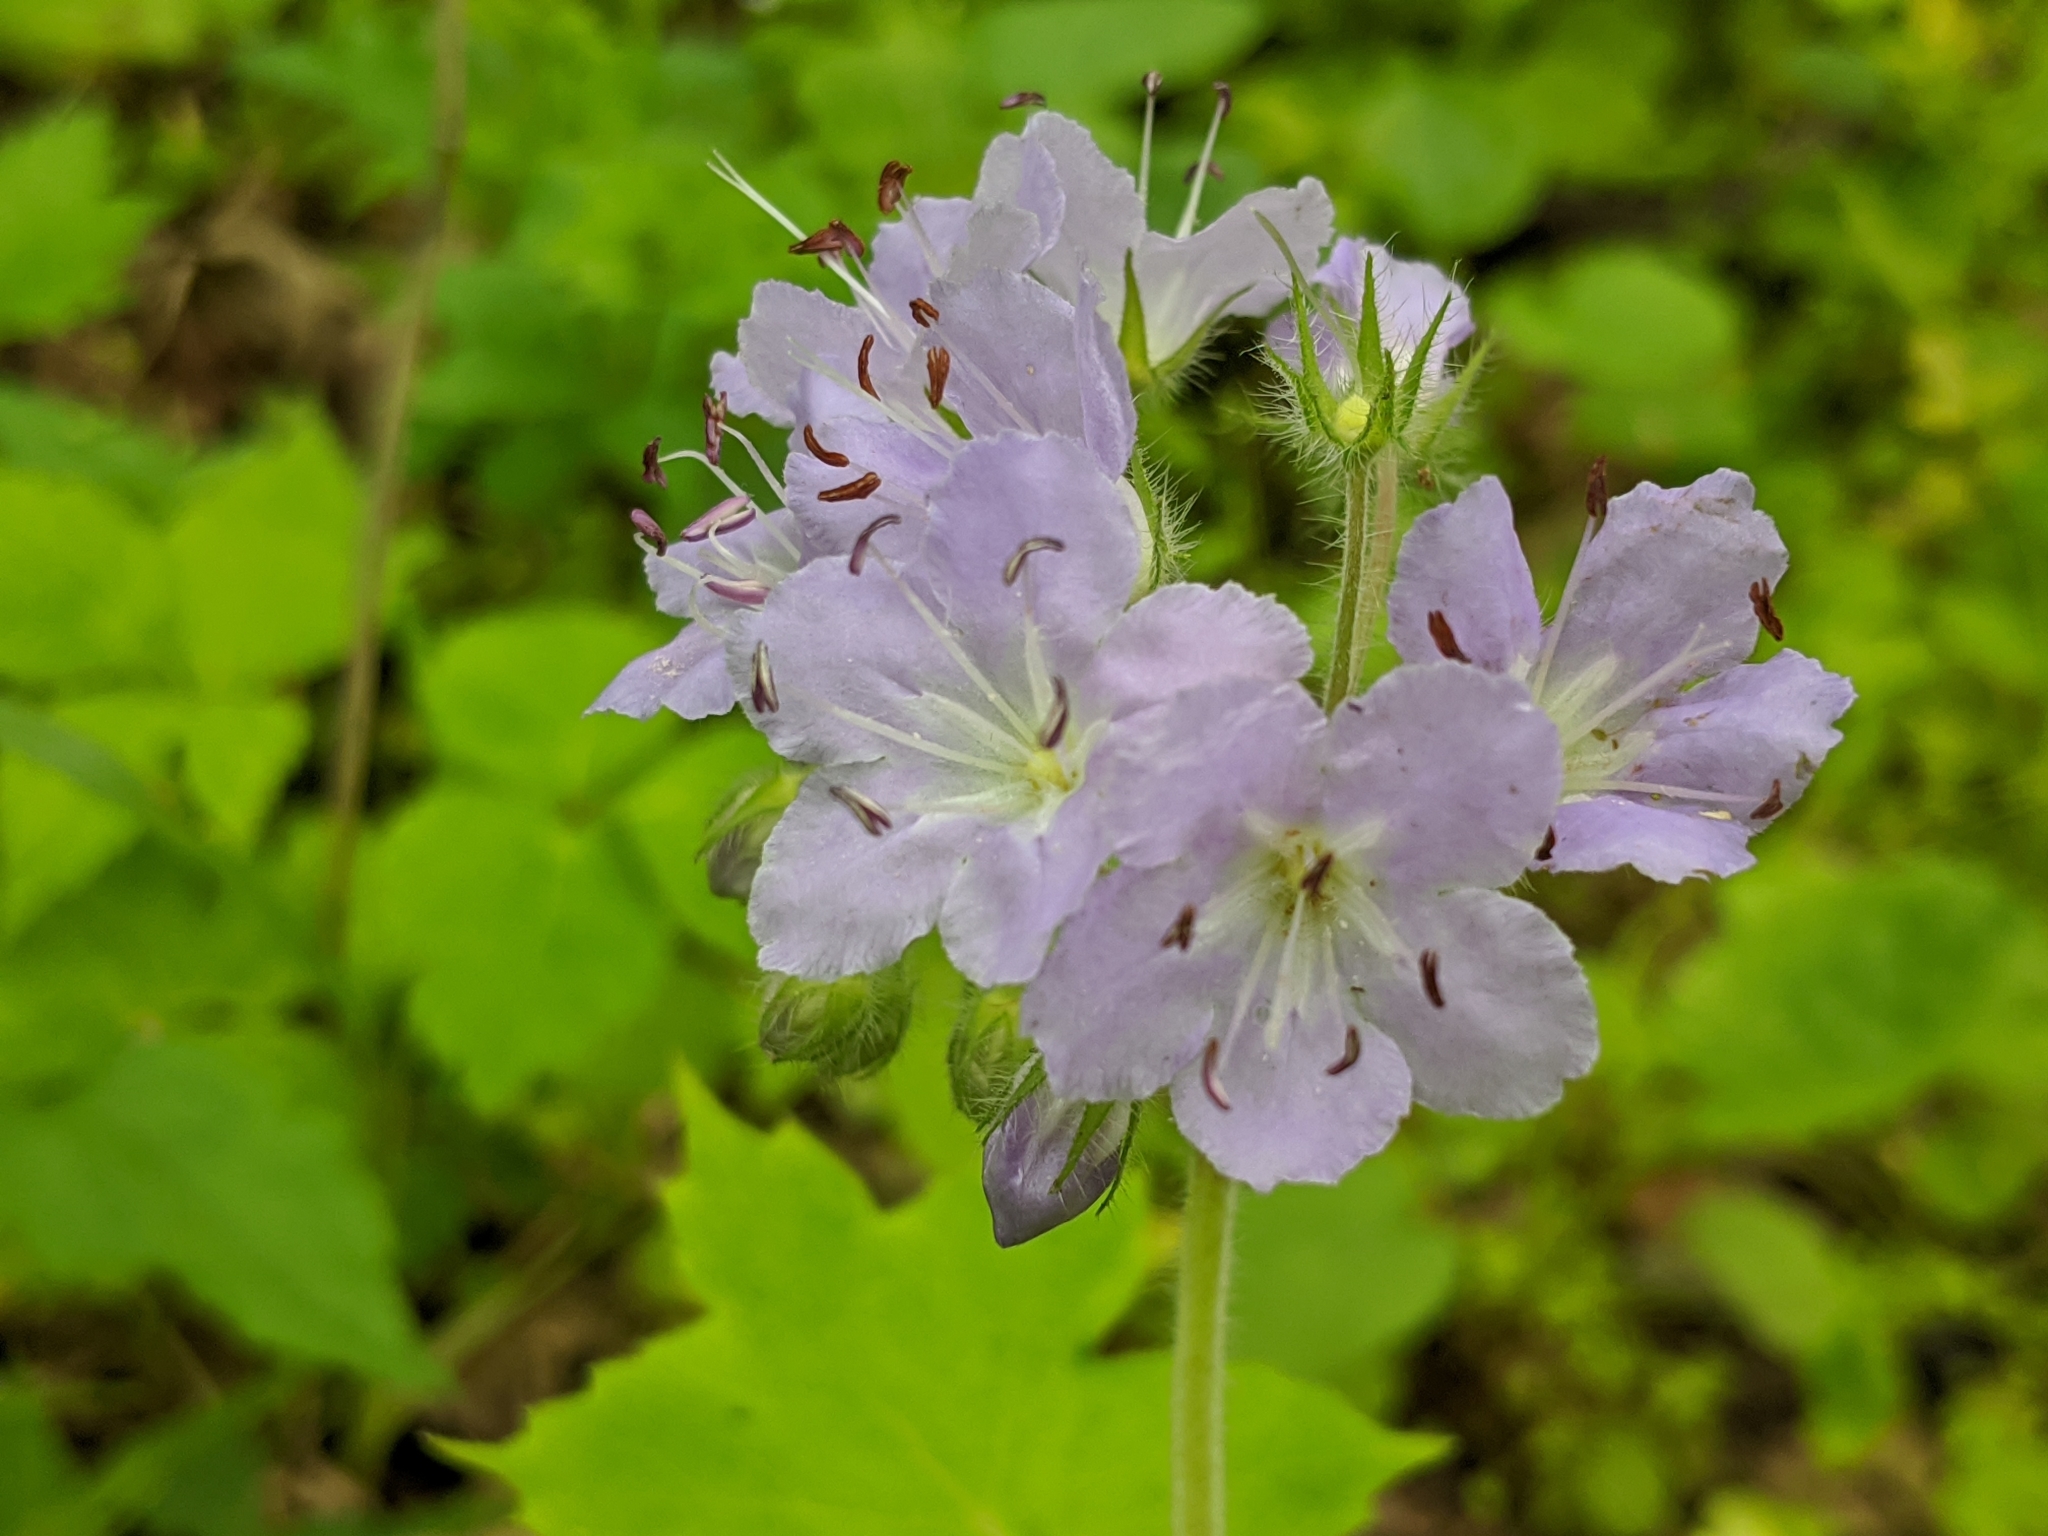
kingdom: Plantae
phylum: Tracheophyta
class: Magnoliopsida
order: Boraginales
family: Hydrophyllaceae
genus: Hydrophyllum
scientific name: Hydrophyllum appendiculatum
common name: Appendaged waterleaf
